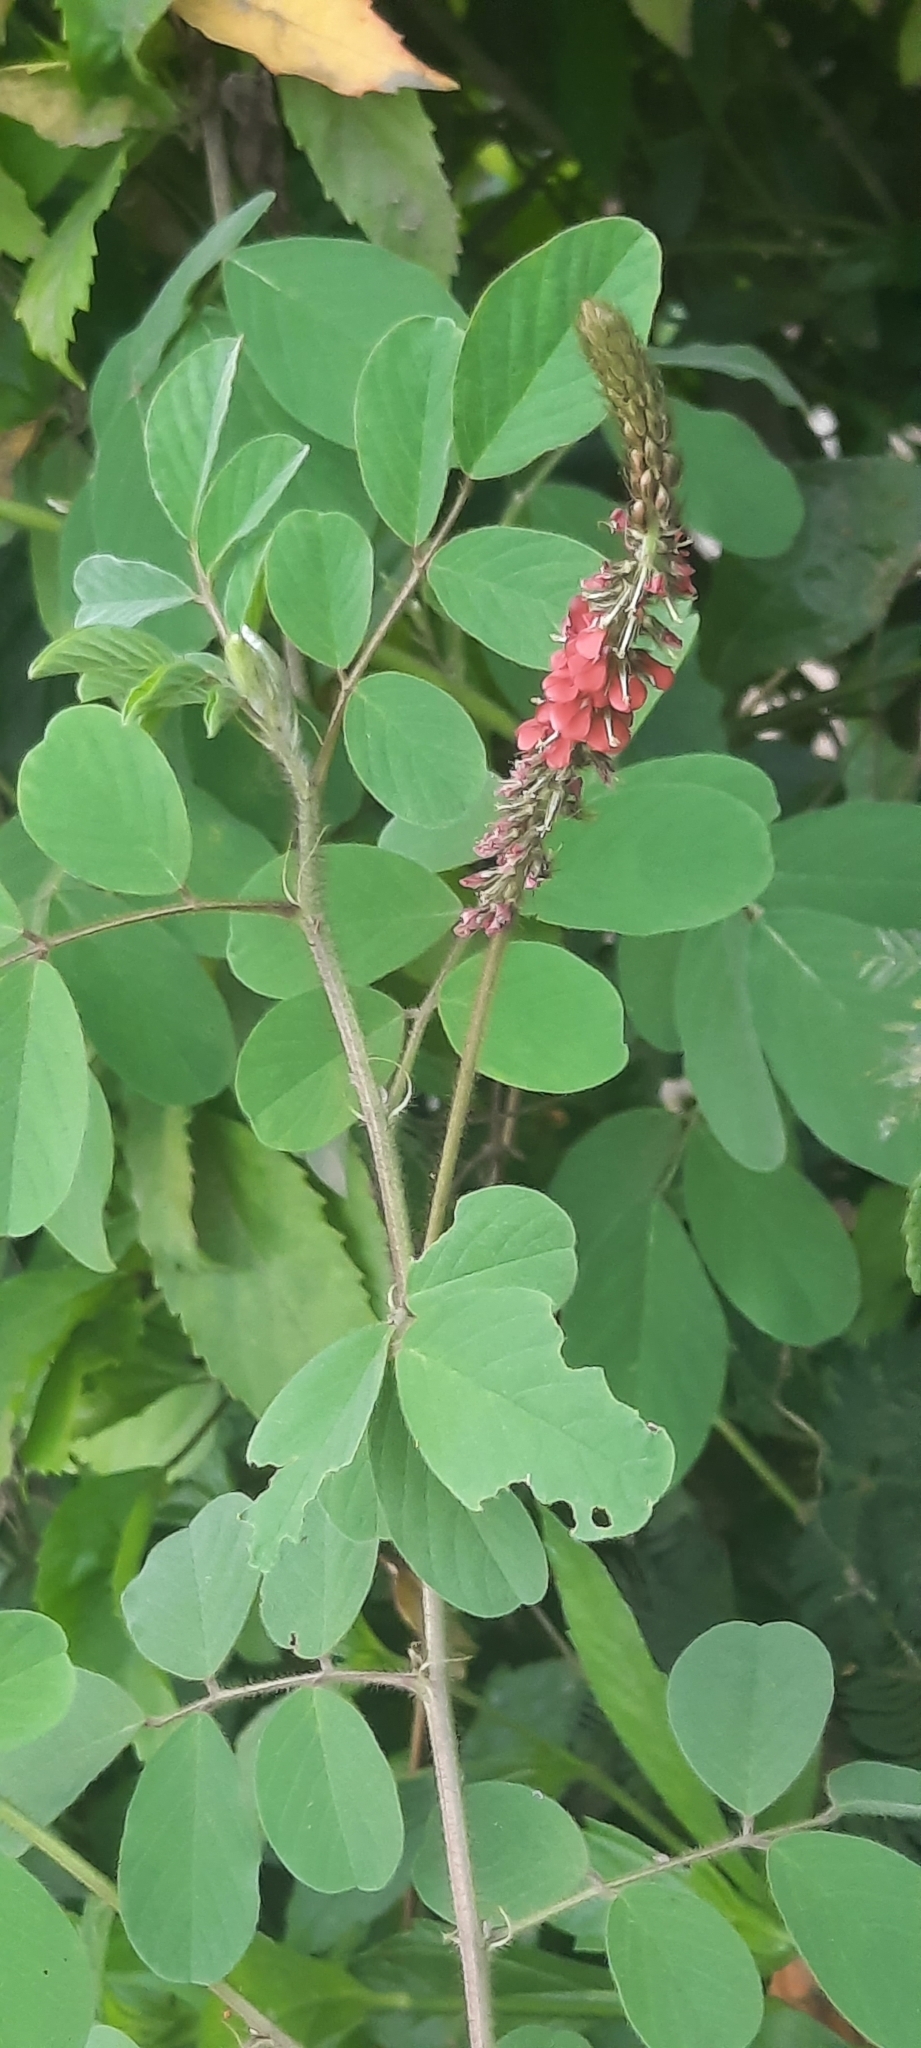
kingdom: Plantae
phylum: Tracheophyta
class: Magnoliopsida
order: Fabales
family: Fabaceae
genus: Indigofera
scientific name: Indigofera hirsuta
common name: Hairy indigo
